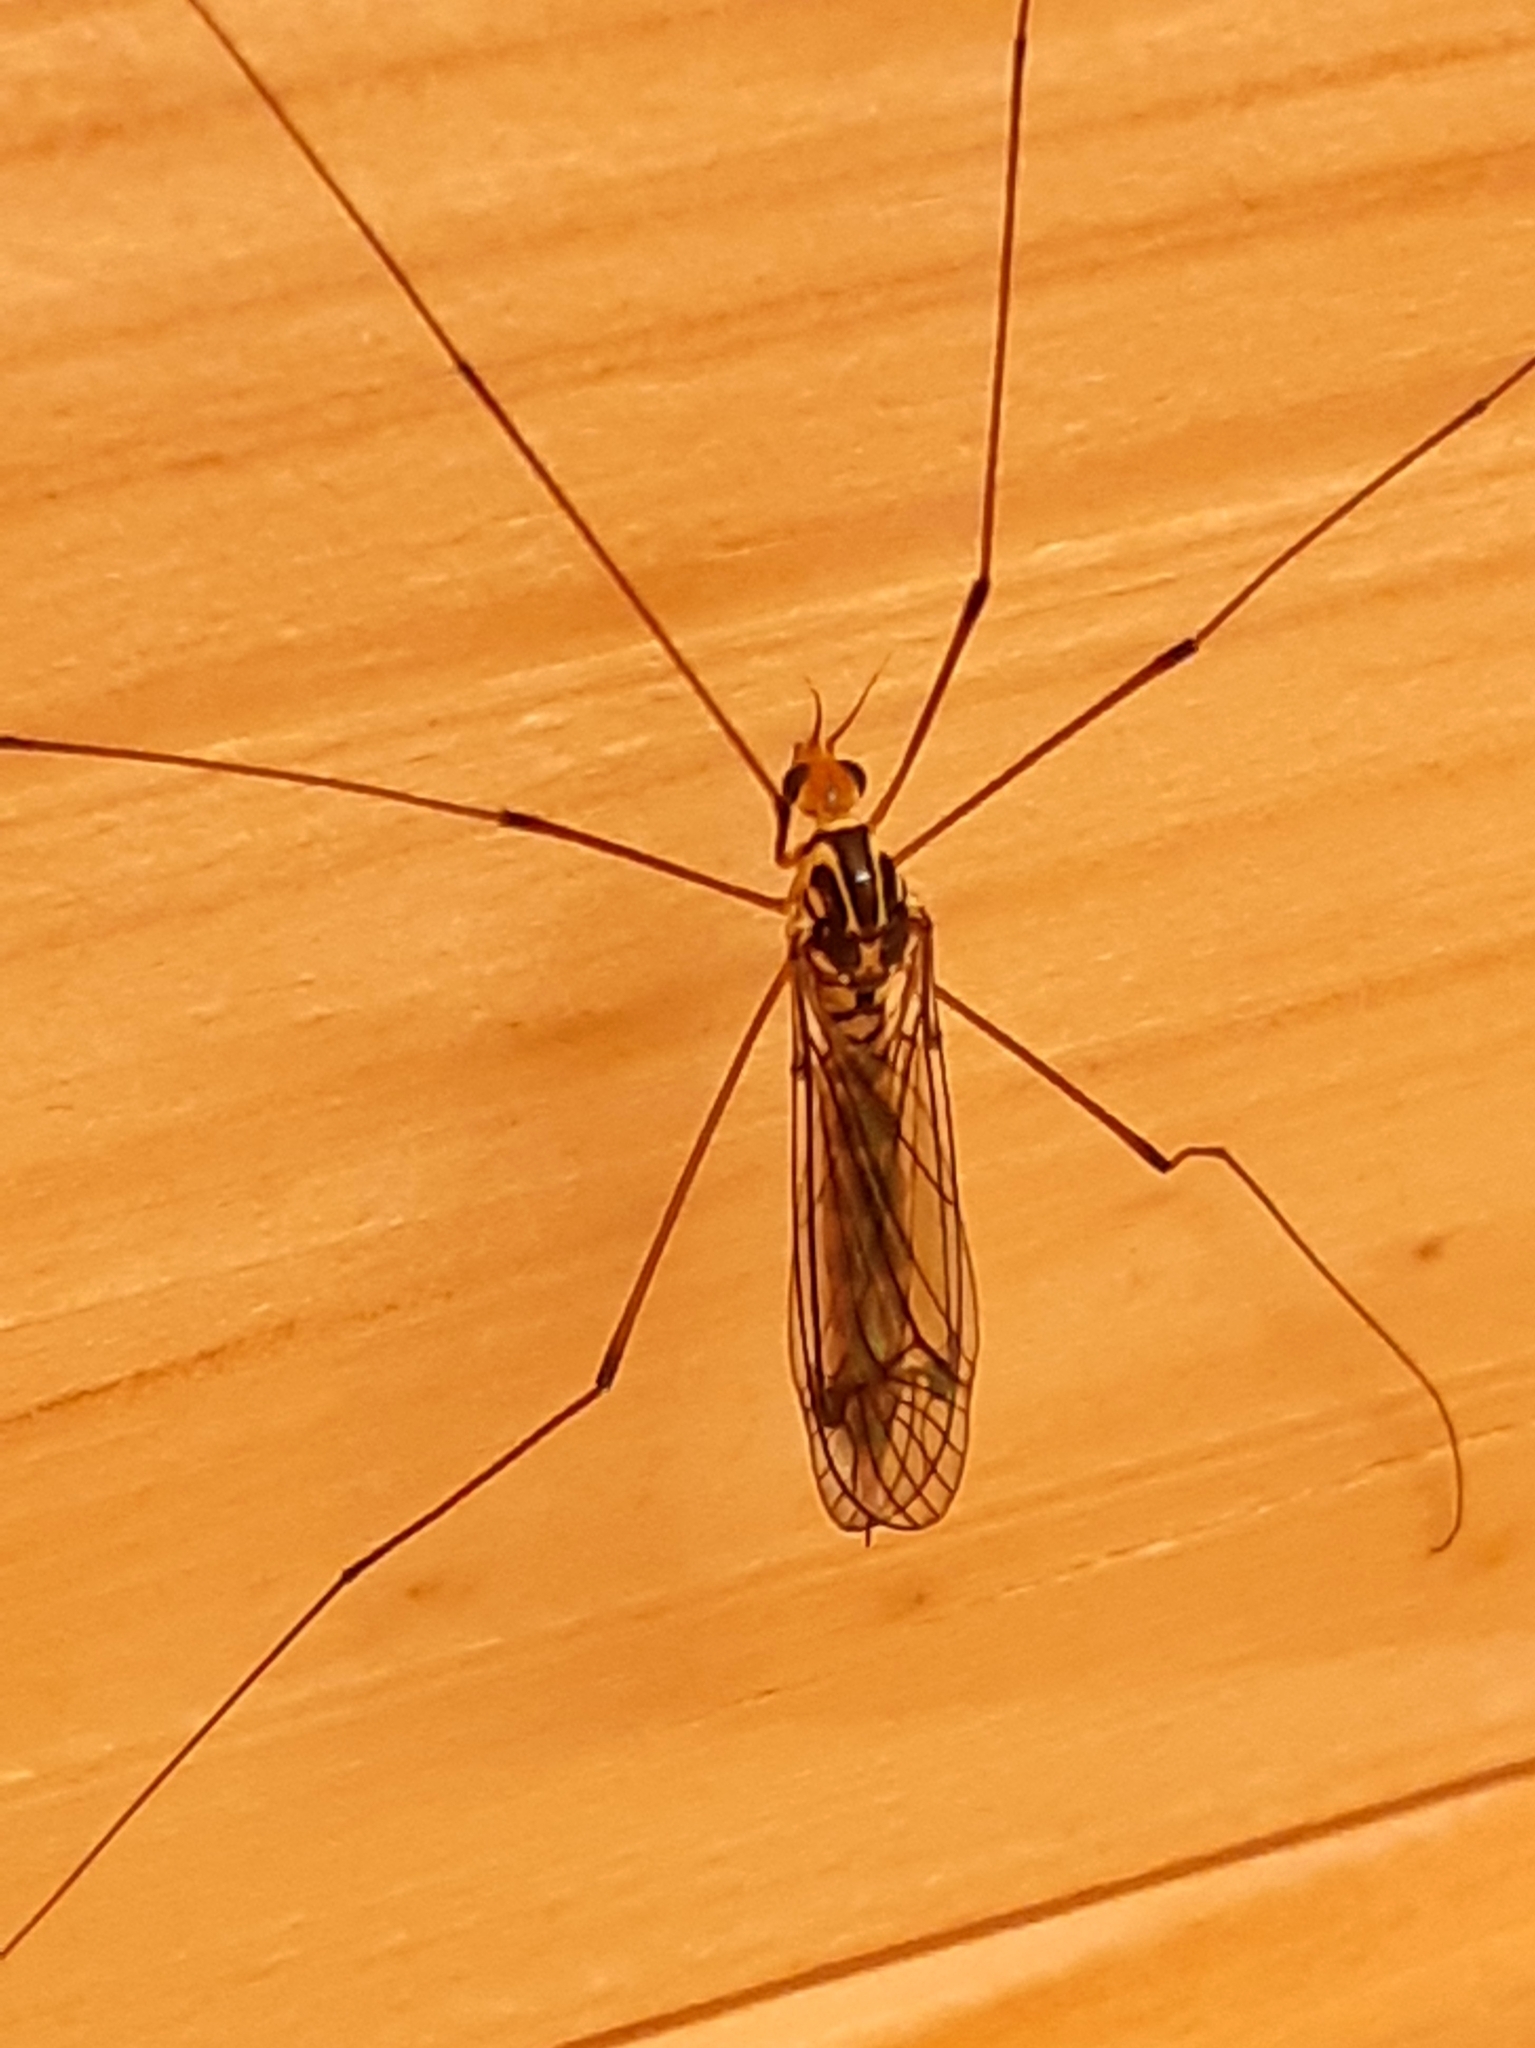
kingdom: Animalia
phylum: Arthropoda
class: Insecta
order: Diptera
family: Tipulidae
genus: Nephrotoma
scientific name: Nephrotoma flavipalpis
